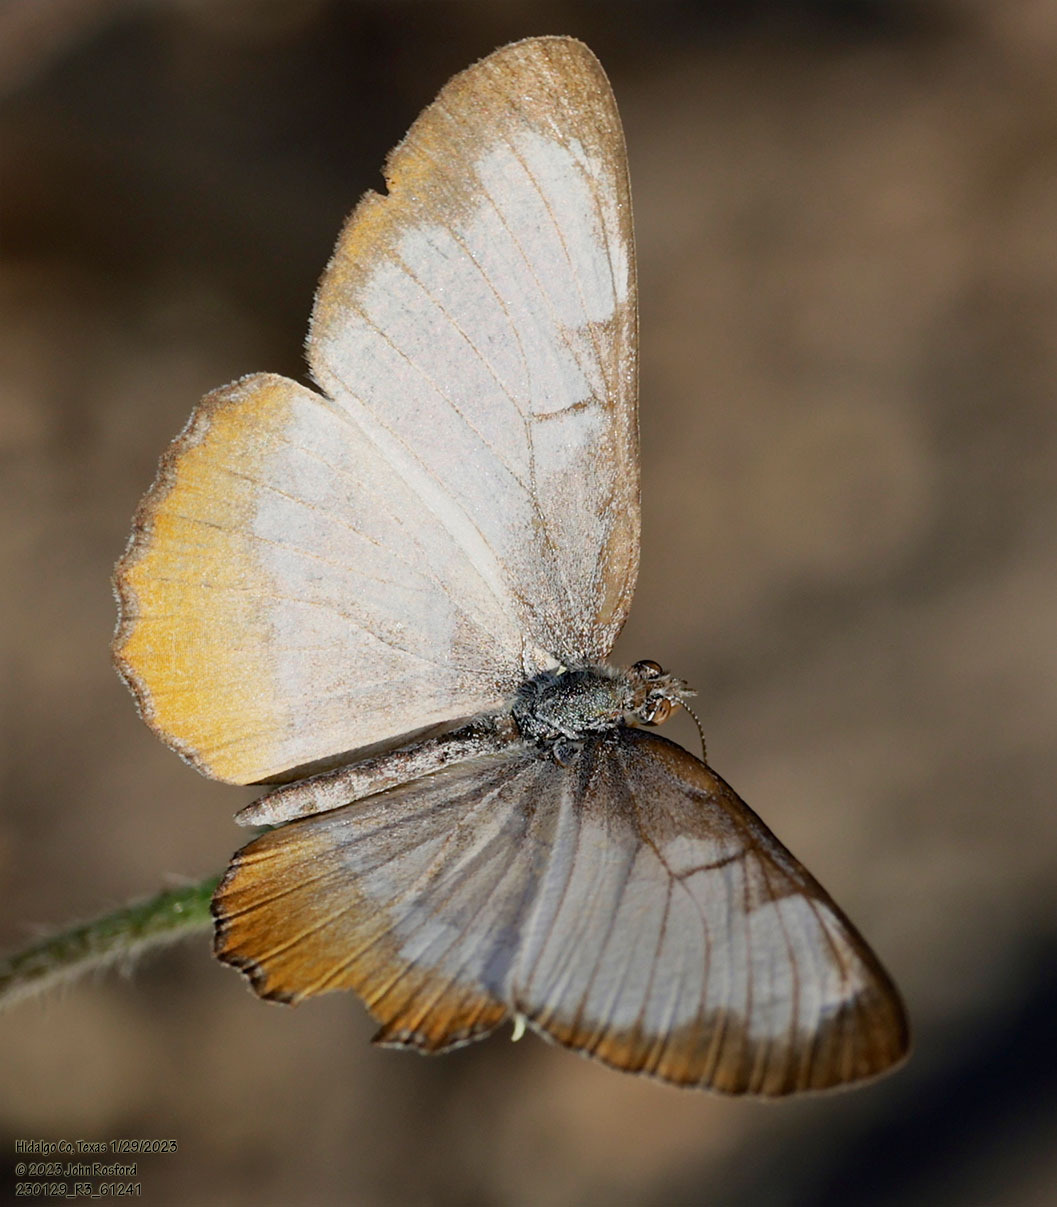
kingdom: Animalia
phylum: Arthropoda
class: Insecta
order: Lepidoptera
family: Nymphalidae
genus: Mestra
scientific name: Mestra amymone
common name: Common mestra
